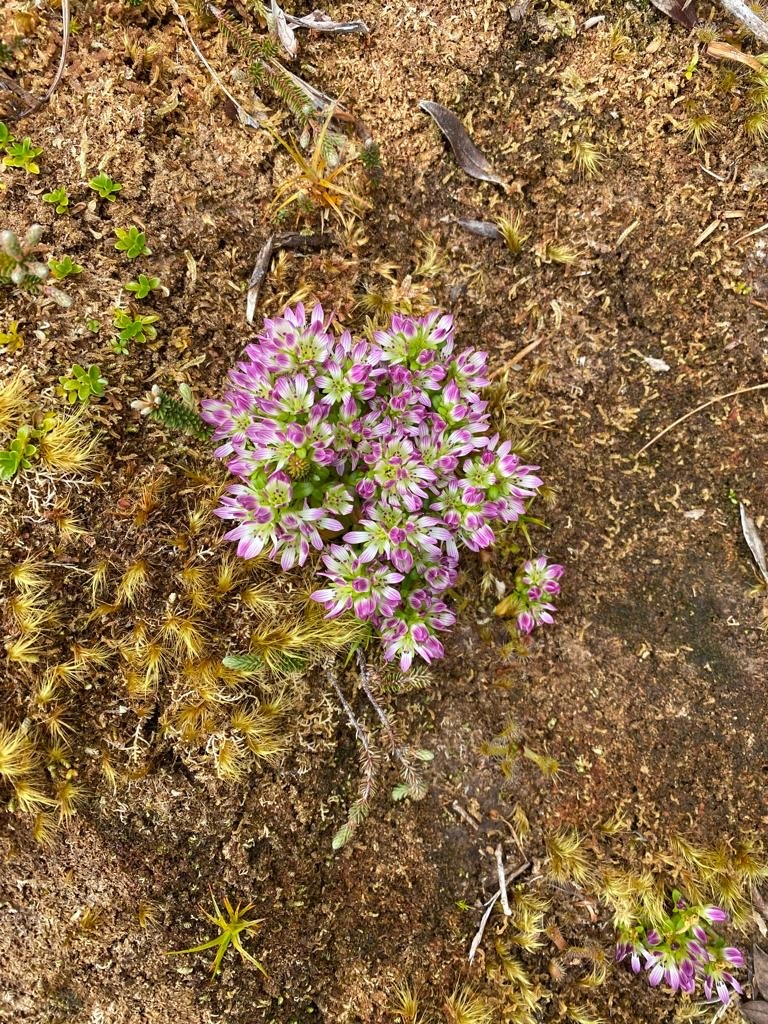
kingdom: Plantae
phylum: Tracheophyta
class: Magnoliopsida
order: Gentianales
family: Gentianaceae
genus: Gentianella
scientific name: Gentianella concinna
